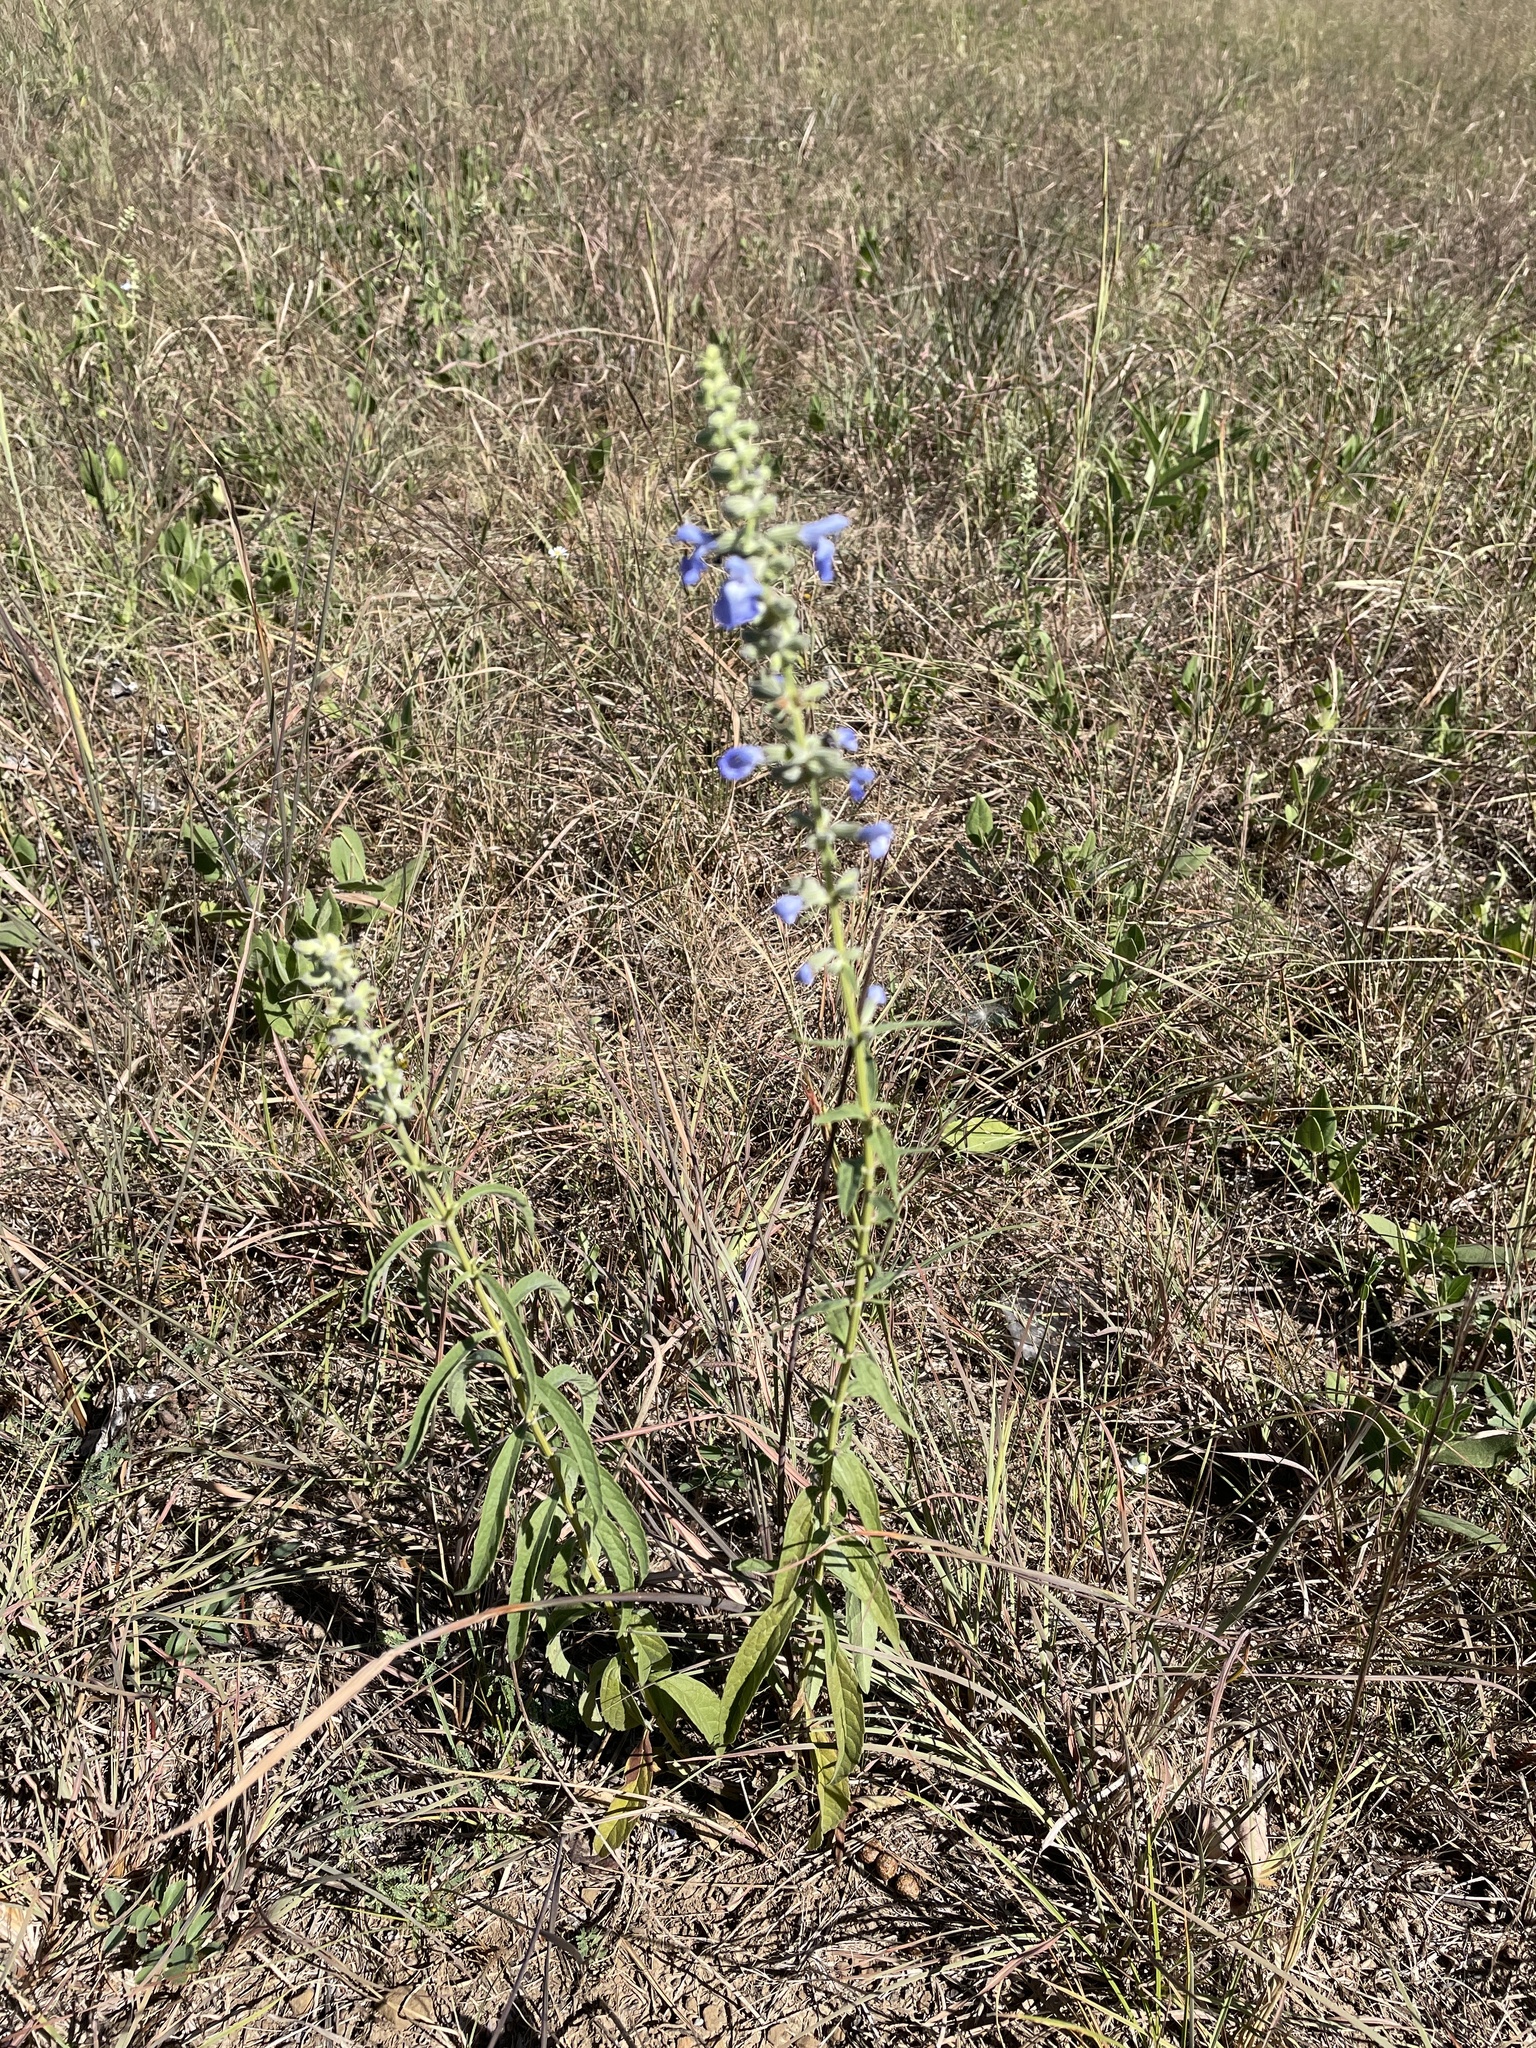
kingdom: Plantae
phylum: Tracheophyta
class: Magnoliopsida
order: Lamiales
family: Lamiaceae
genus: Salvia
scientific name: Salvia azurea
